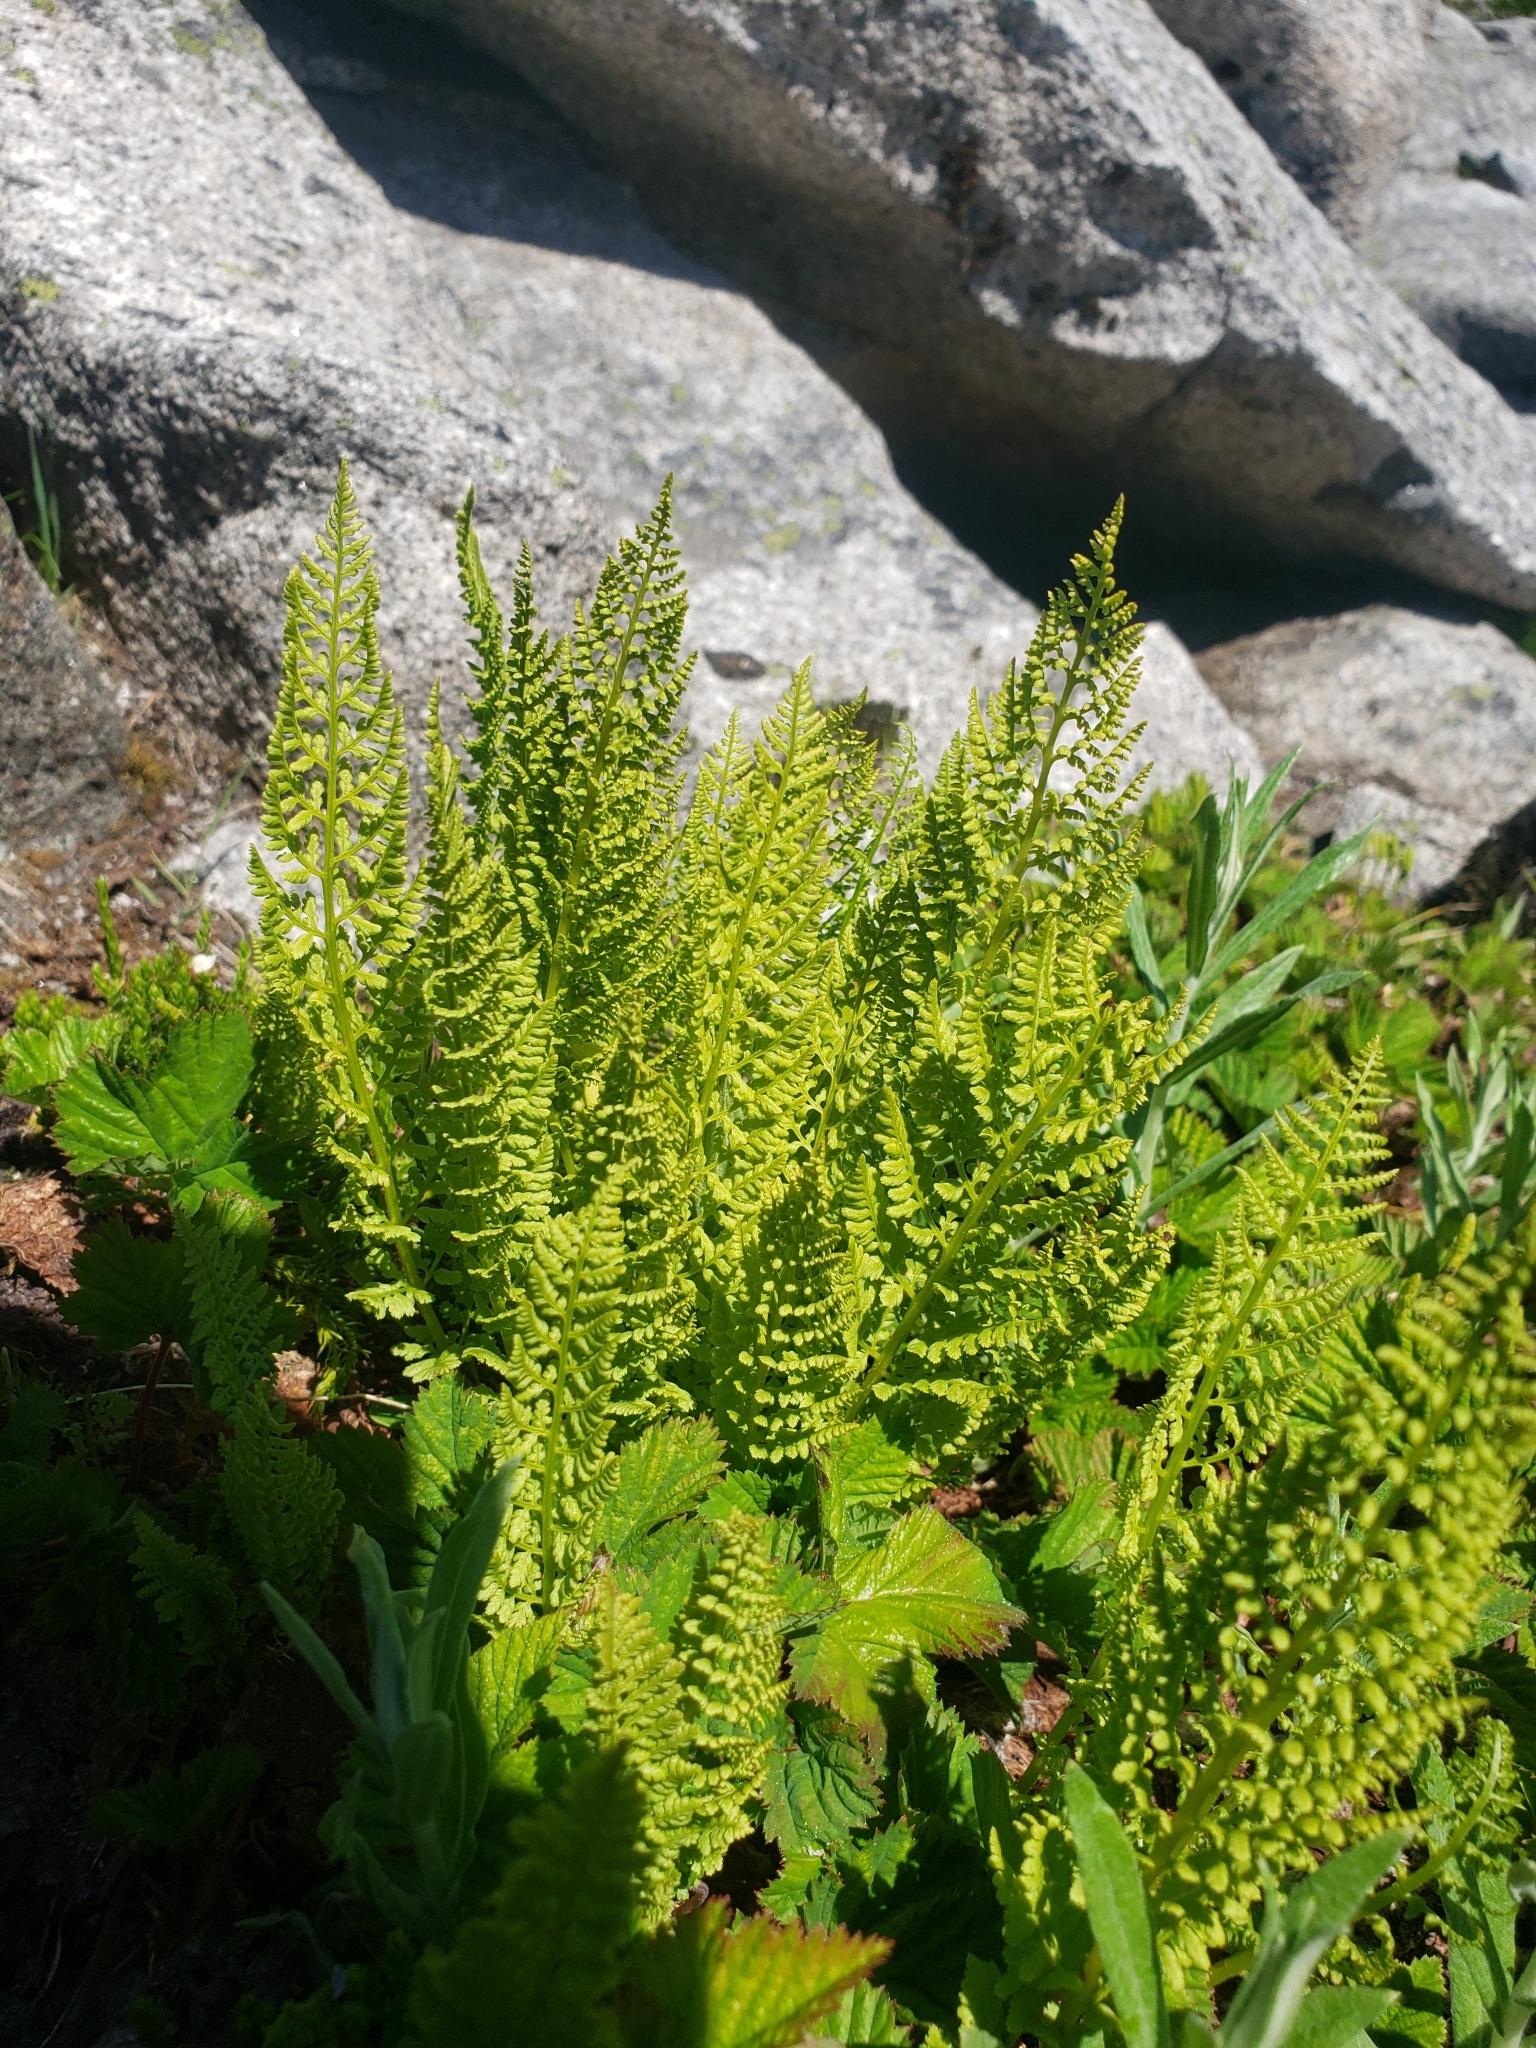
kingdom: Plantae
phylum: Tracheophyta
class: Polypodiopsida
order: Polypodiales
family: Athyriaceae
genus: Athyrium
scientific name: Athyrium americanum
